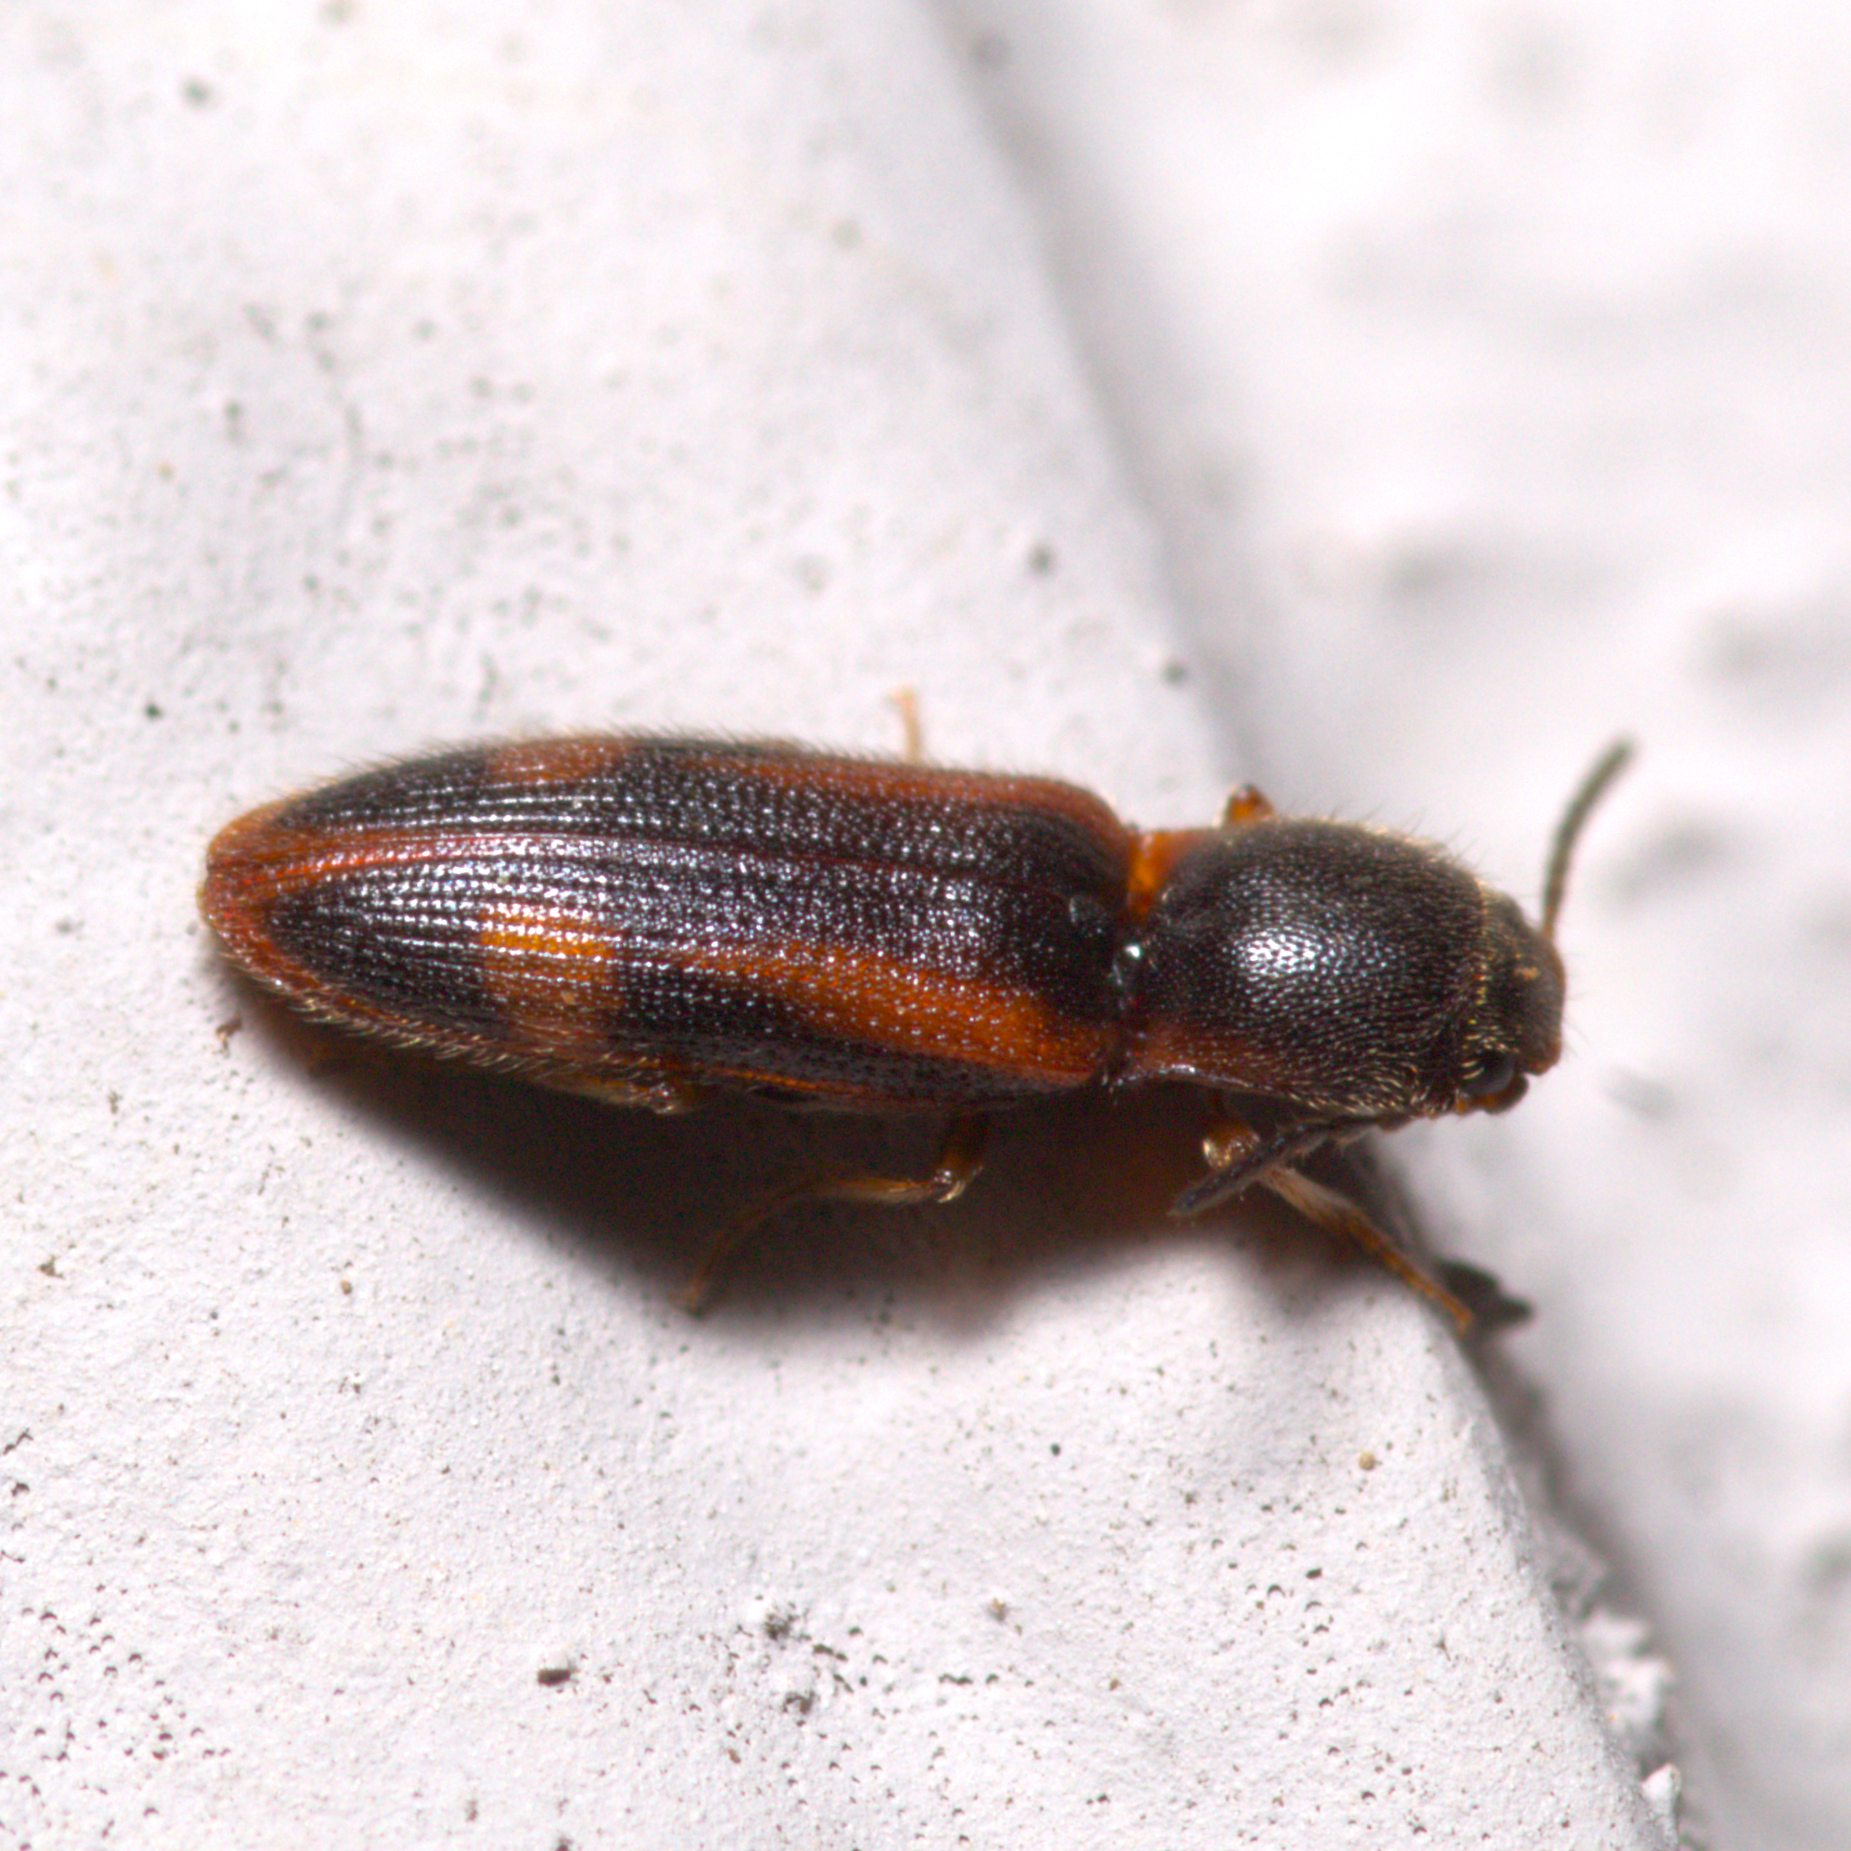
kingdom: Animalia
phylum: Arthropoda
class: Insecta
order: Coleoptera
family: Elateridae
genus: Athous
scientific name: Athous
